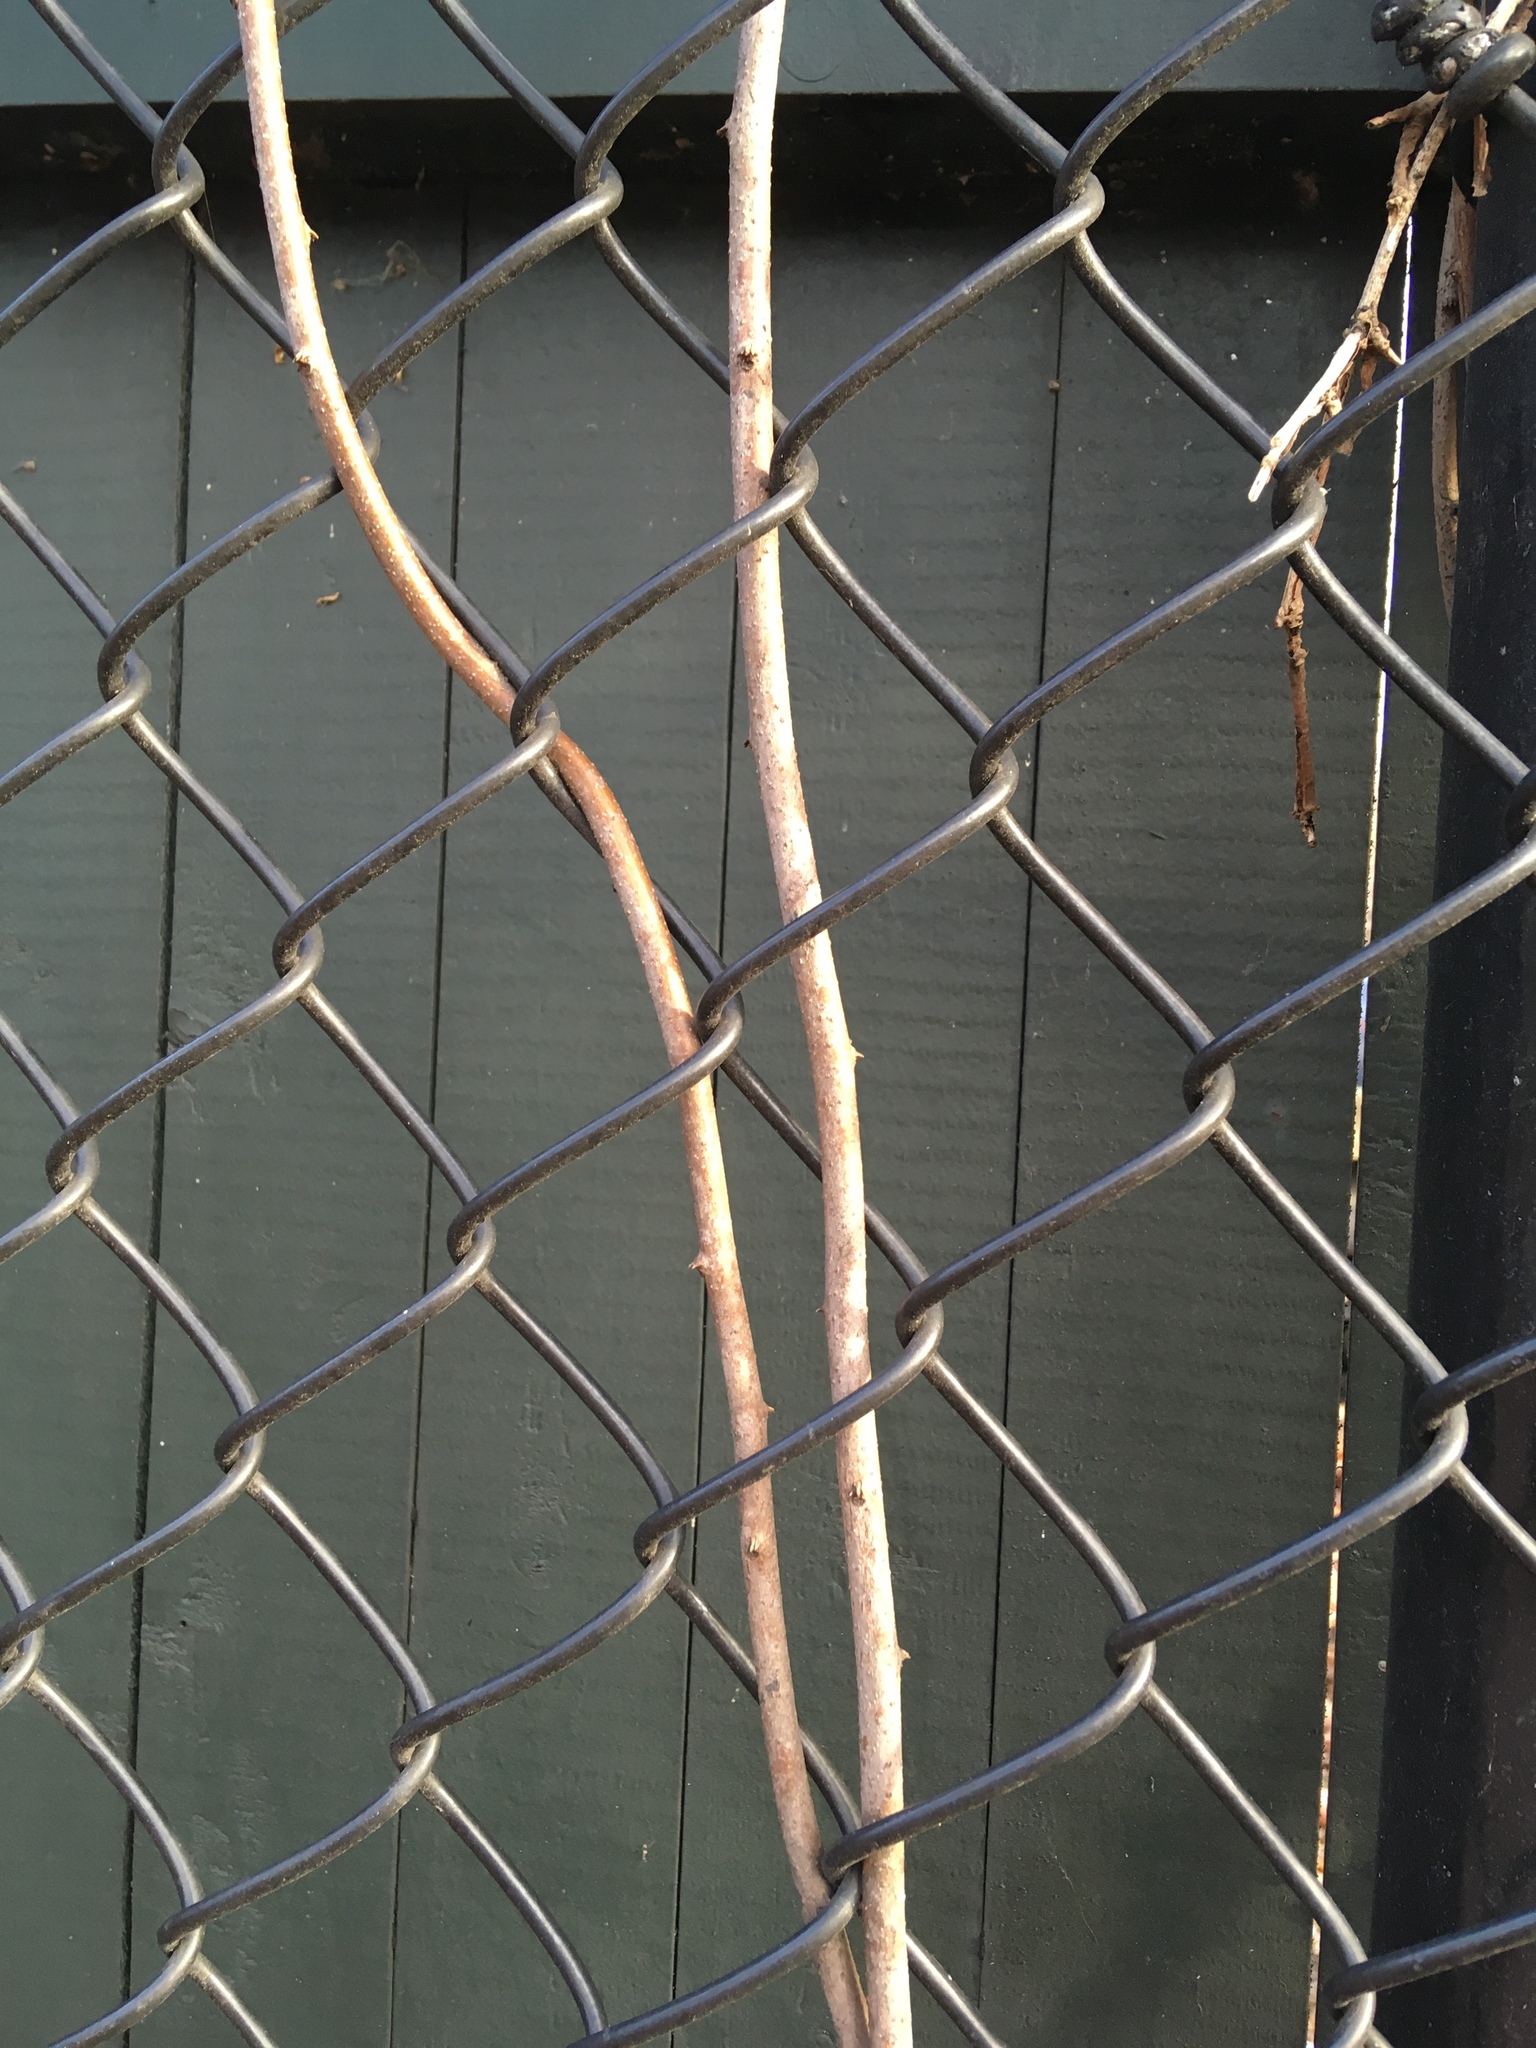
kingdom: Plantae
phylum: Tracheophyta
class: Magnoliopsida
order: Celastrales
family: Celastraceae
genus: Celastrus
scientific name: Celastrus orbiculatus
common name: Oriental bittersweet
